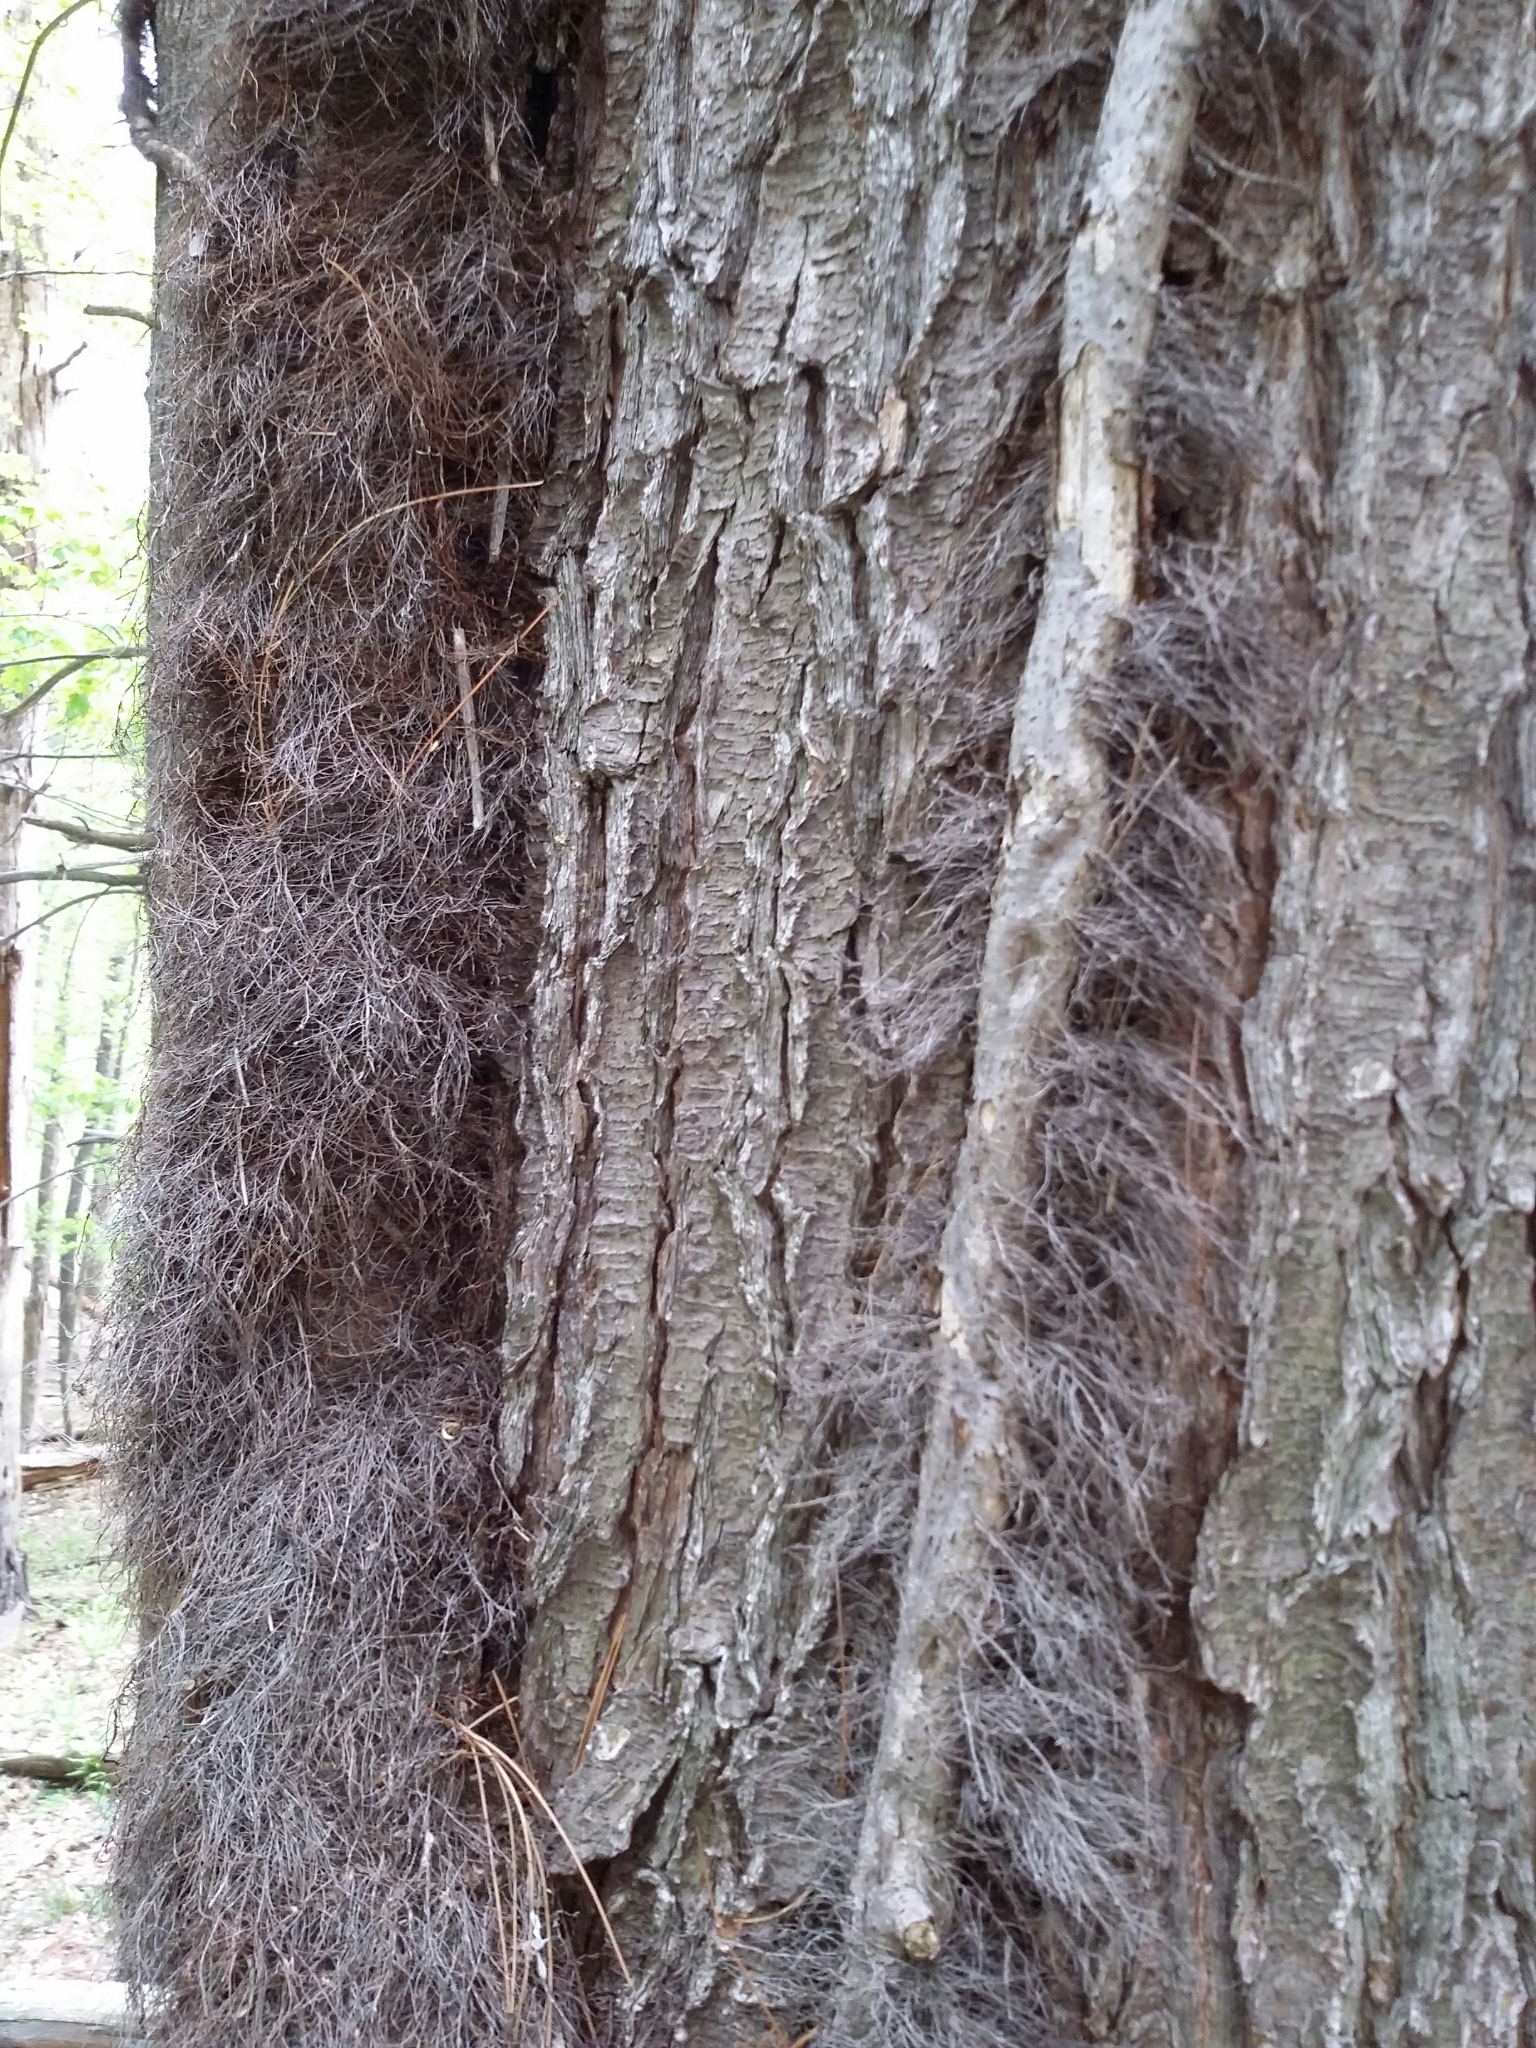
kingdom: Plantae
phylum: Tracheophyta
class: Magnoliopsida
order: Sapindales
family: Anacardiaceae
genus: Toxicodendron
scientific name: Toxicodendron radicans
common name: Poison ivy
